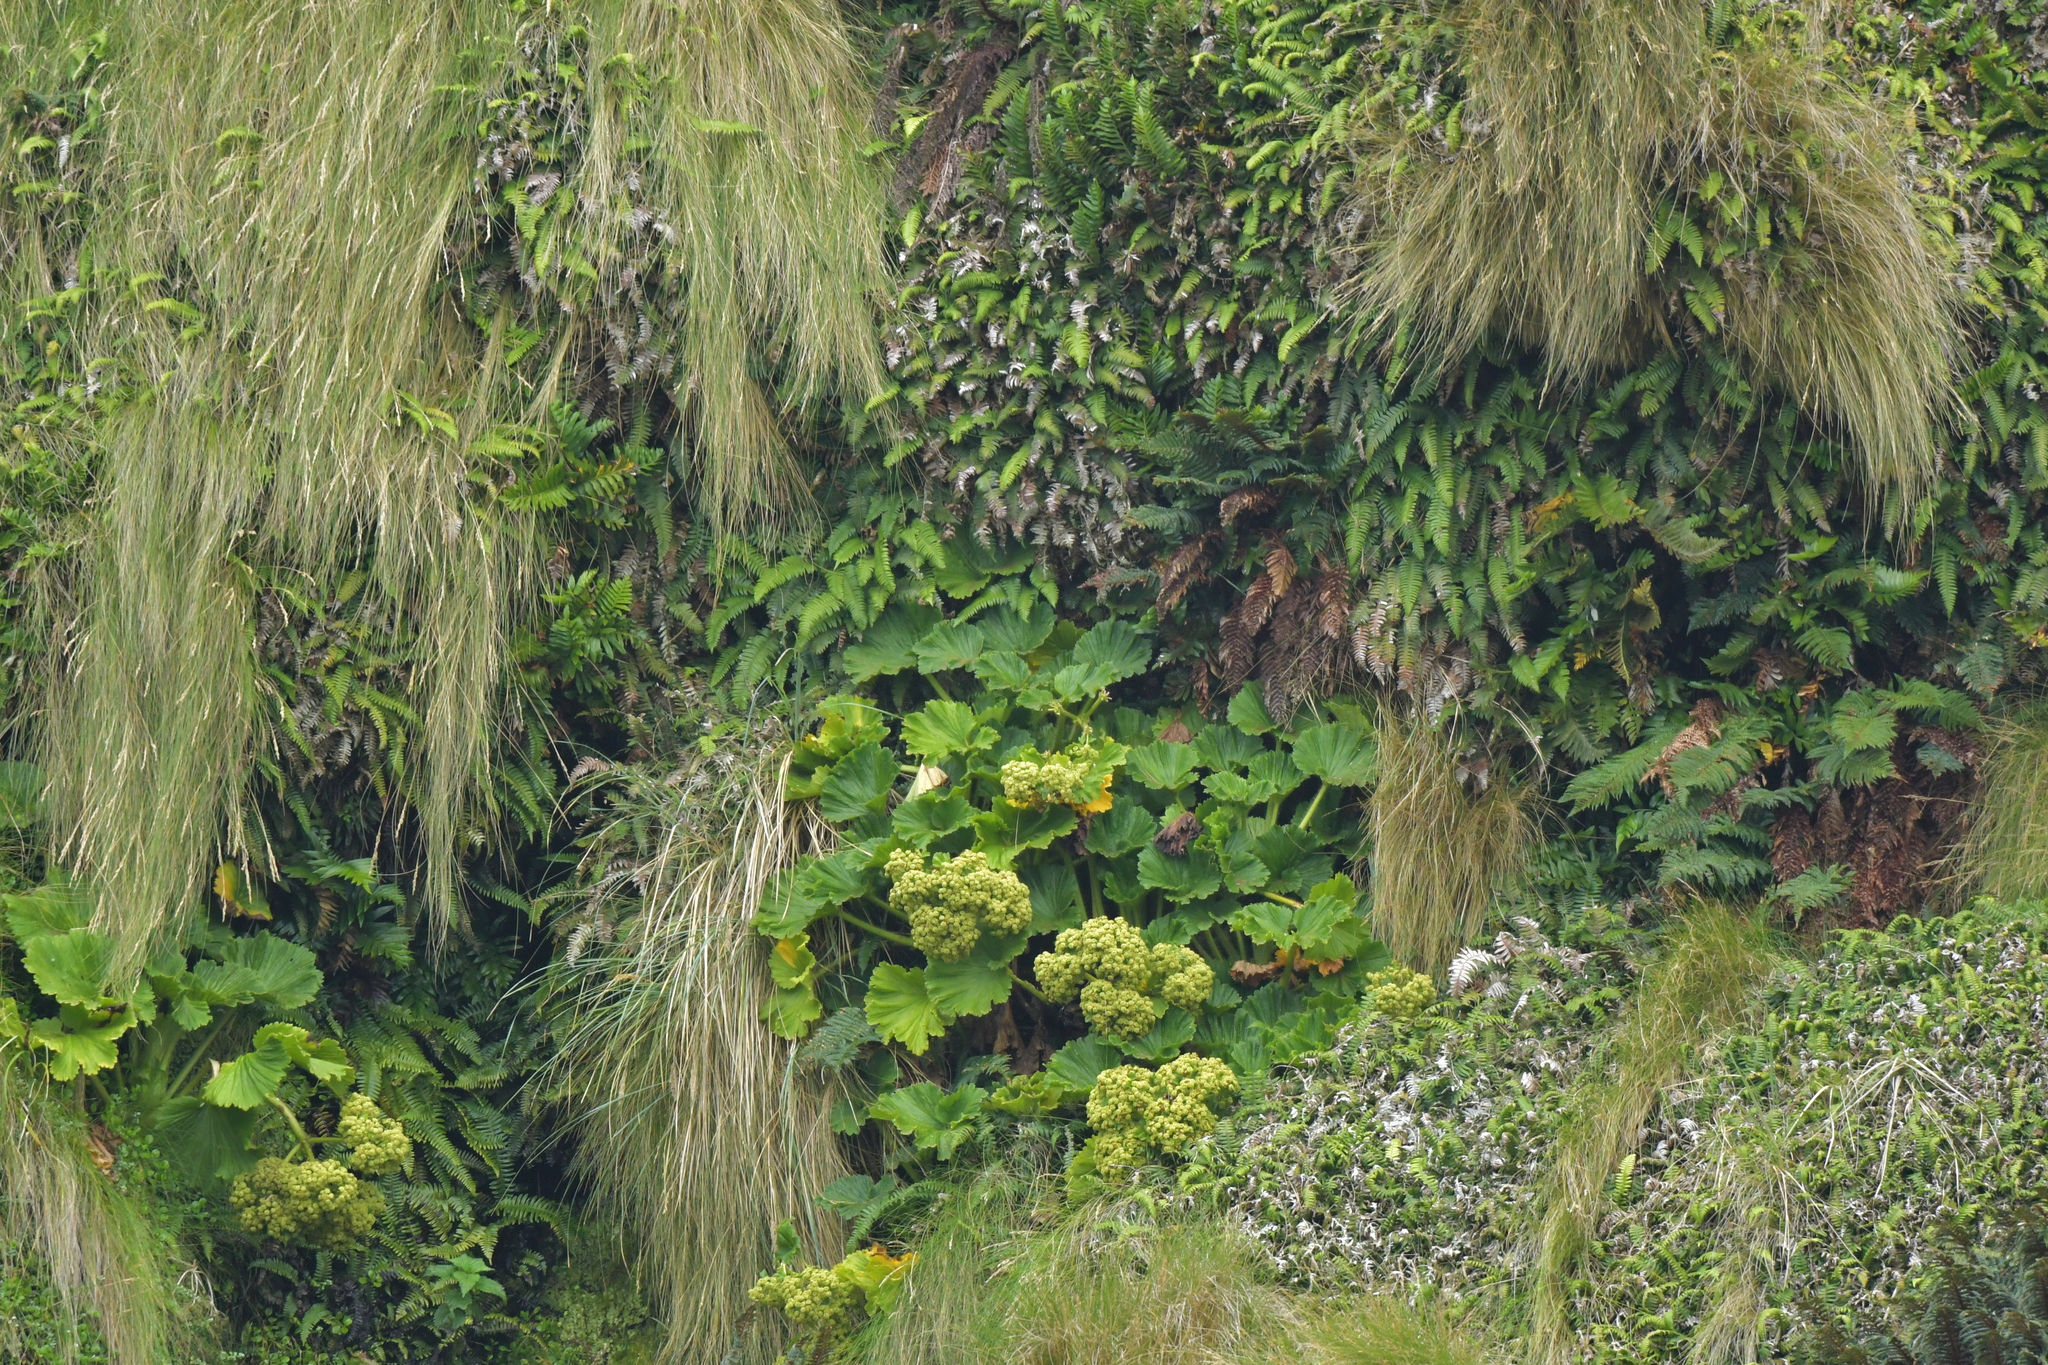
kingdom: Plantae
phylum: Tracheophyta
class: Magnoliopsida
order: Apiales
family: Apiaceae
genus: Azorella
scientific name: Azorella polaris
